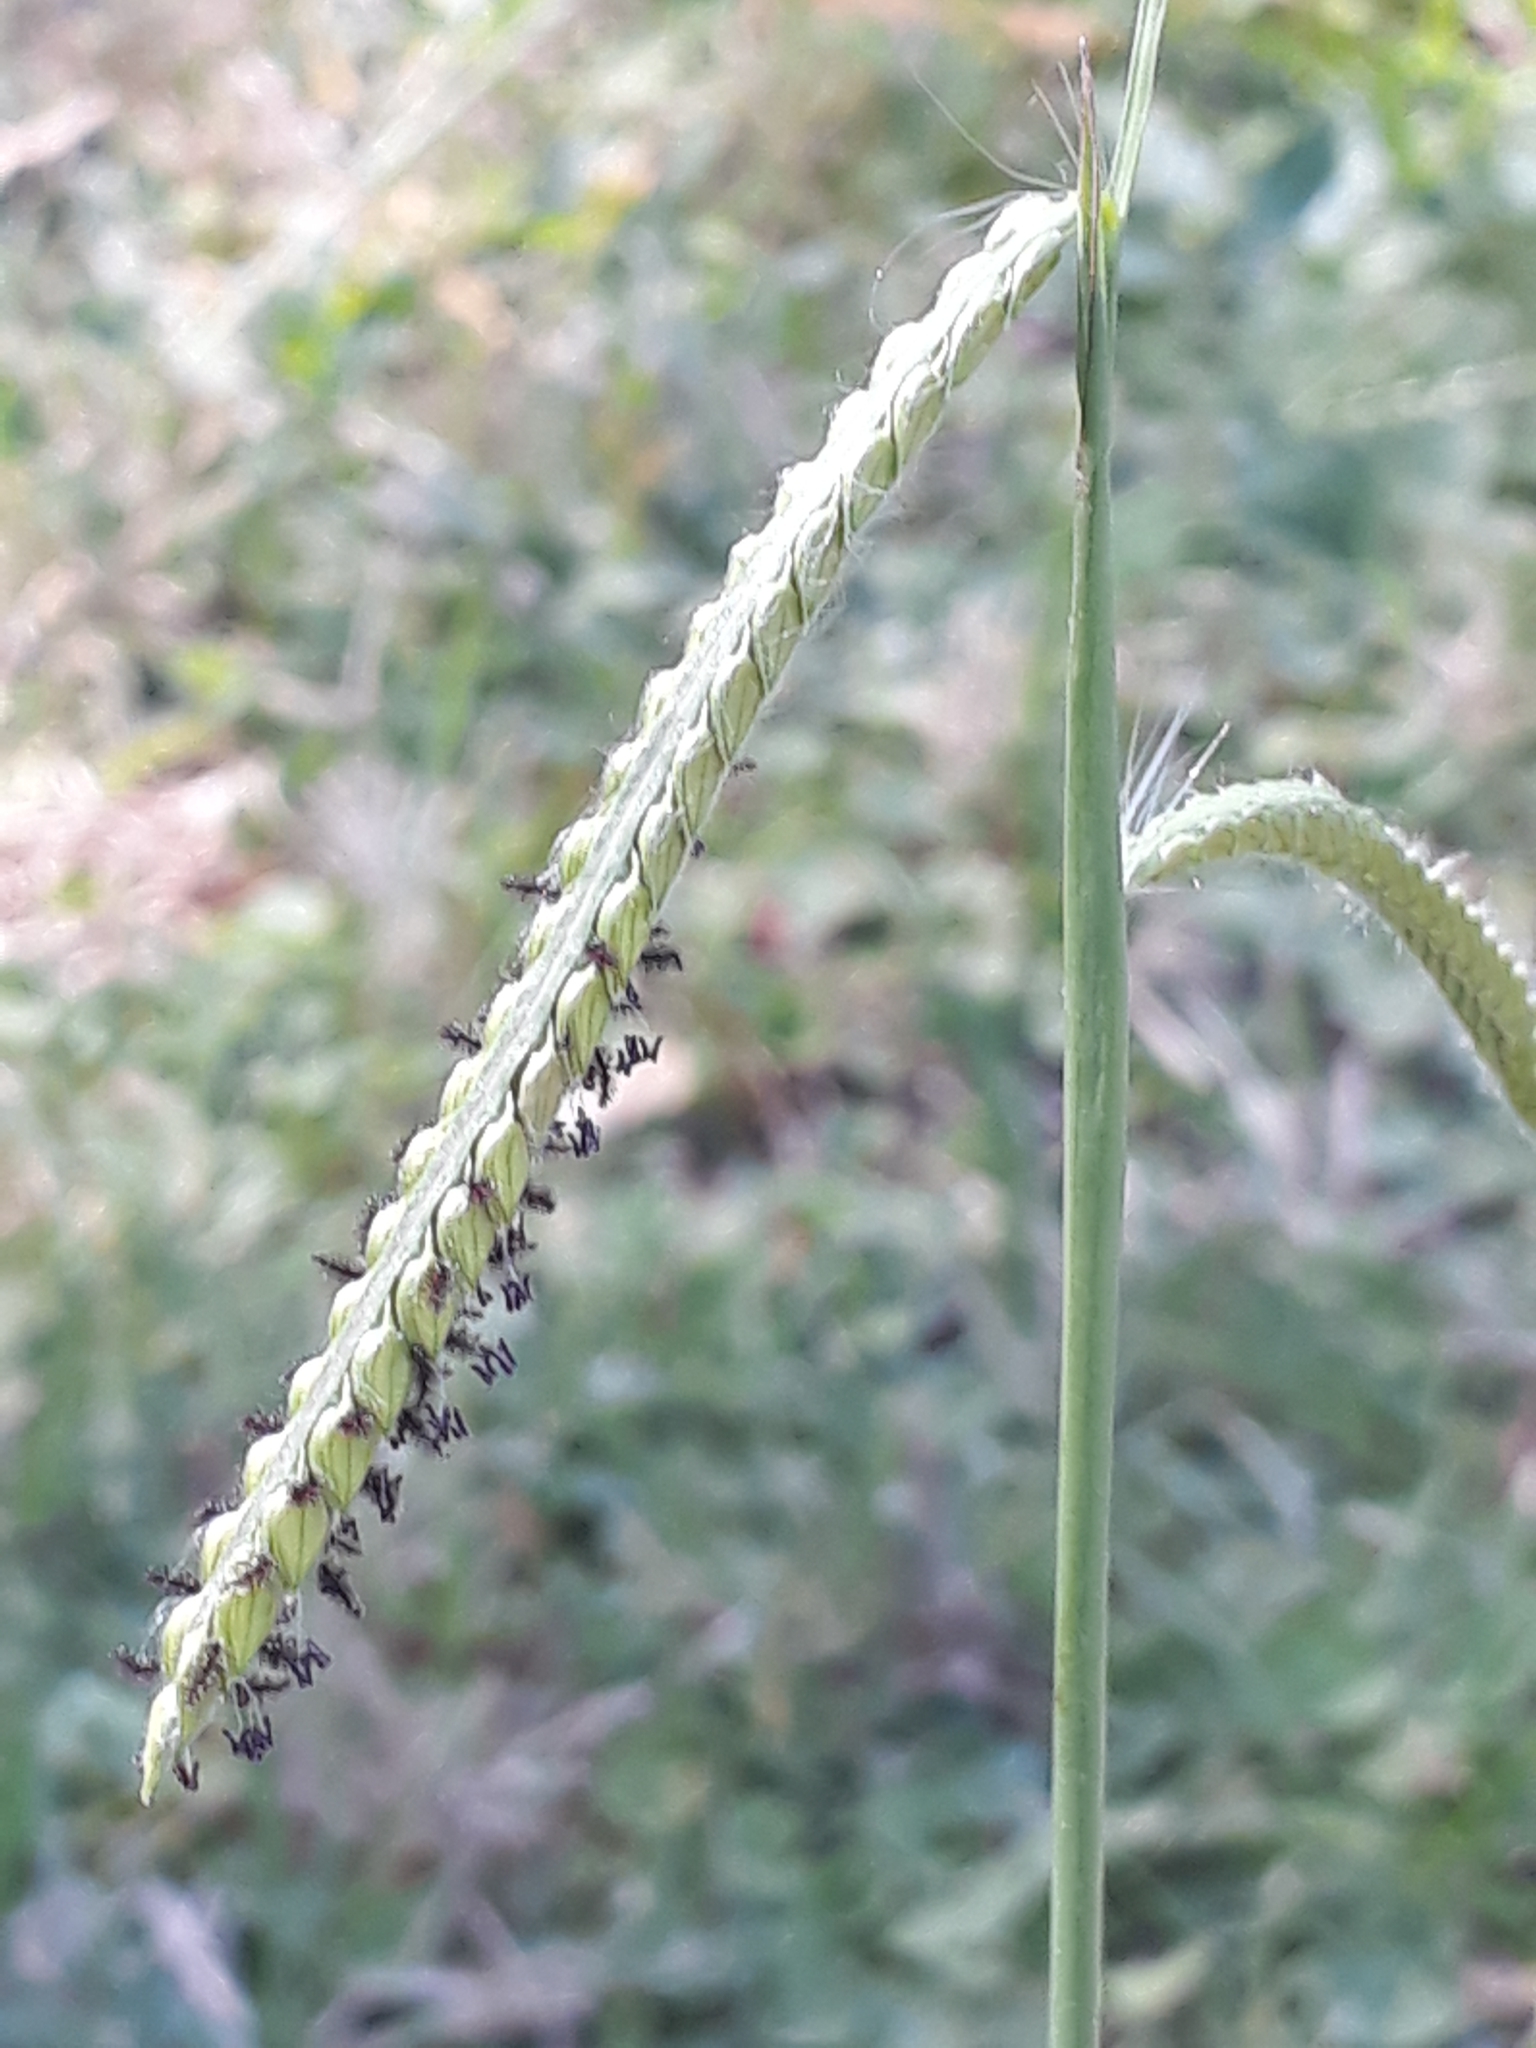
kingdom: Plantae
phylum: Tracheophyta
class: Liliopsida
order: Poales
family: Poaceae
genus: Paspalum
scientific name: Paspalum dilatatum
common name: Dallisgrass
